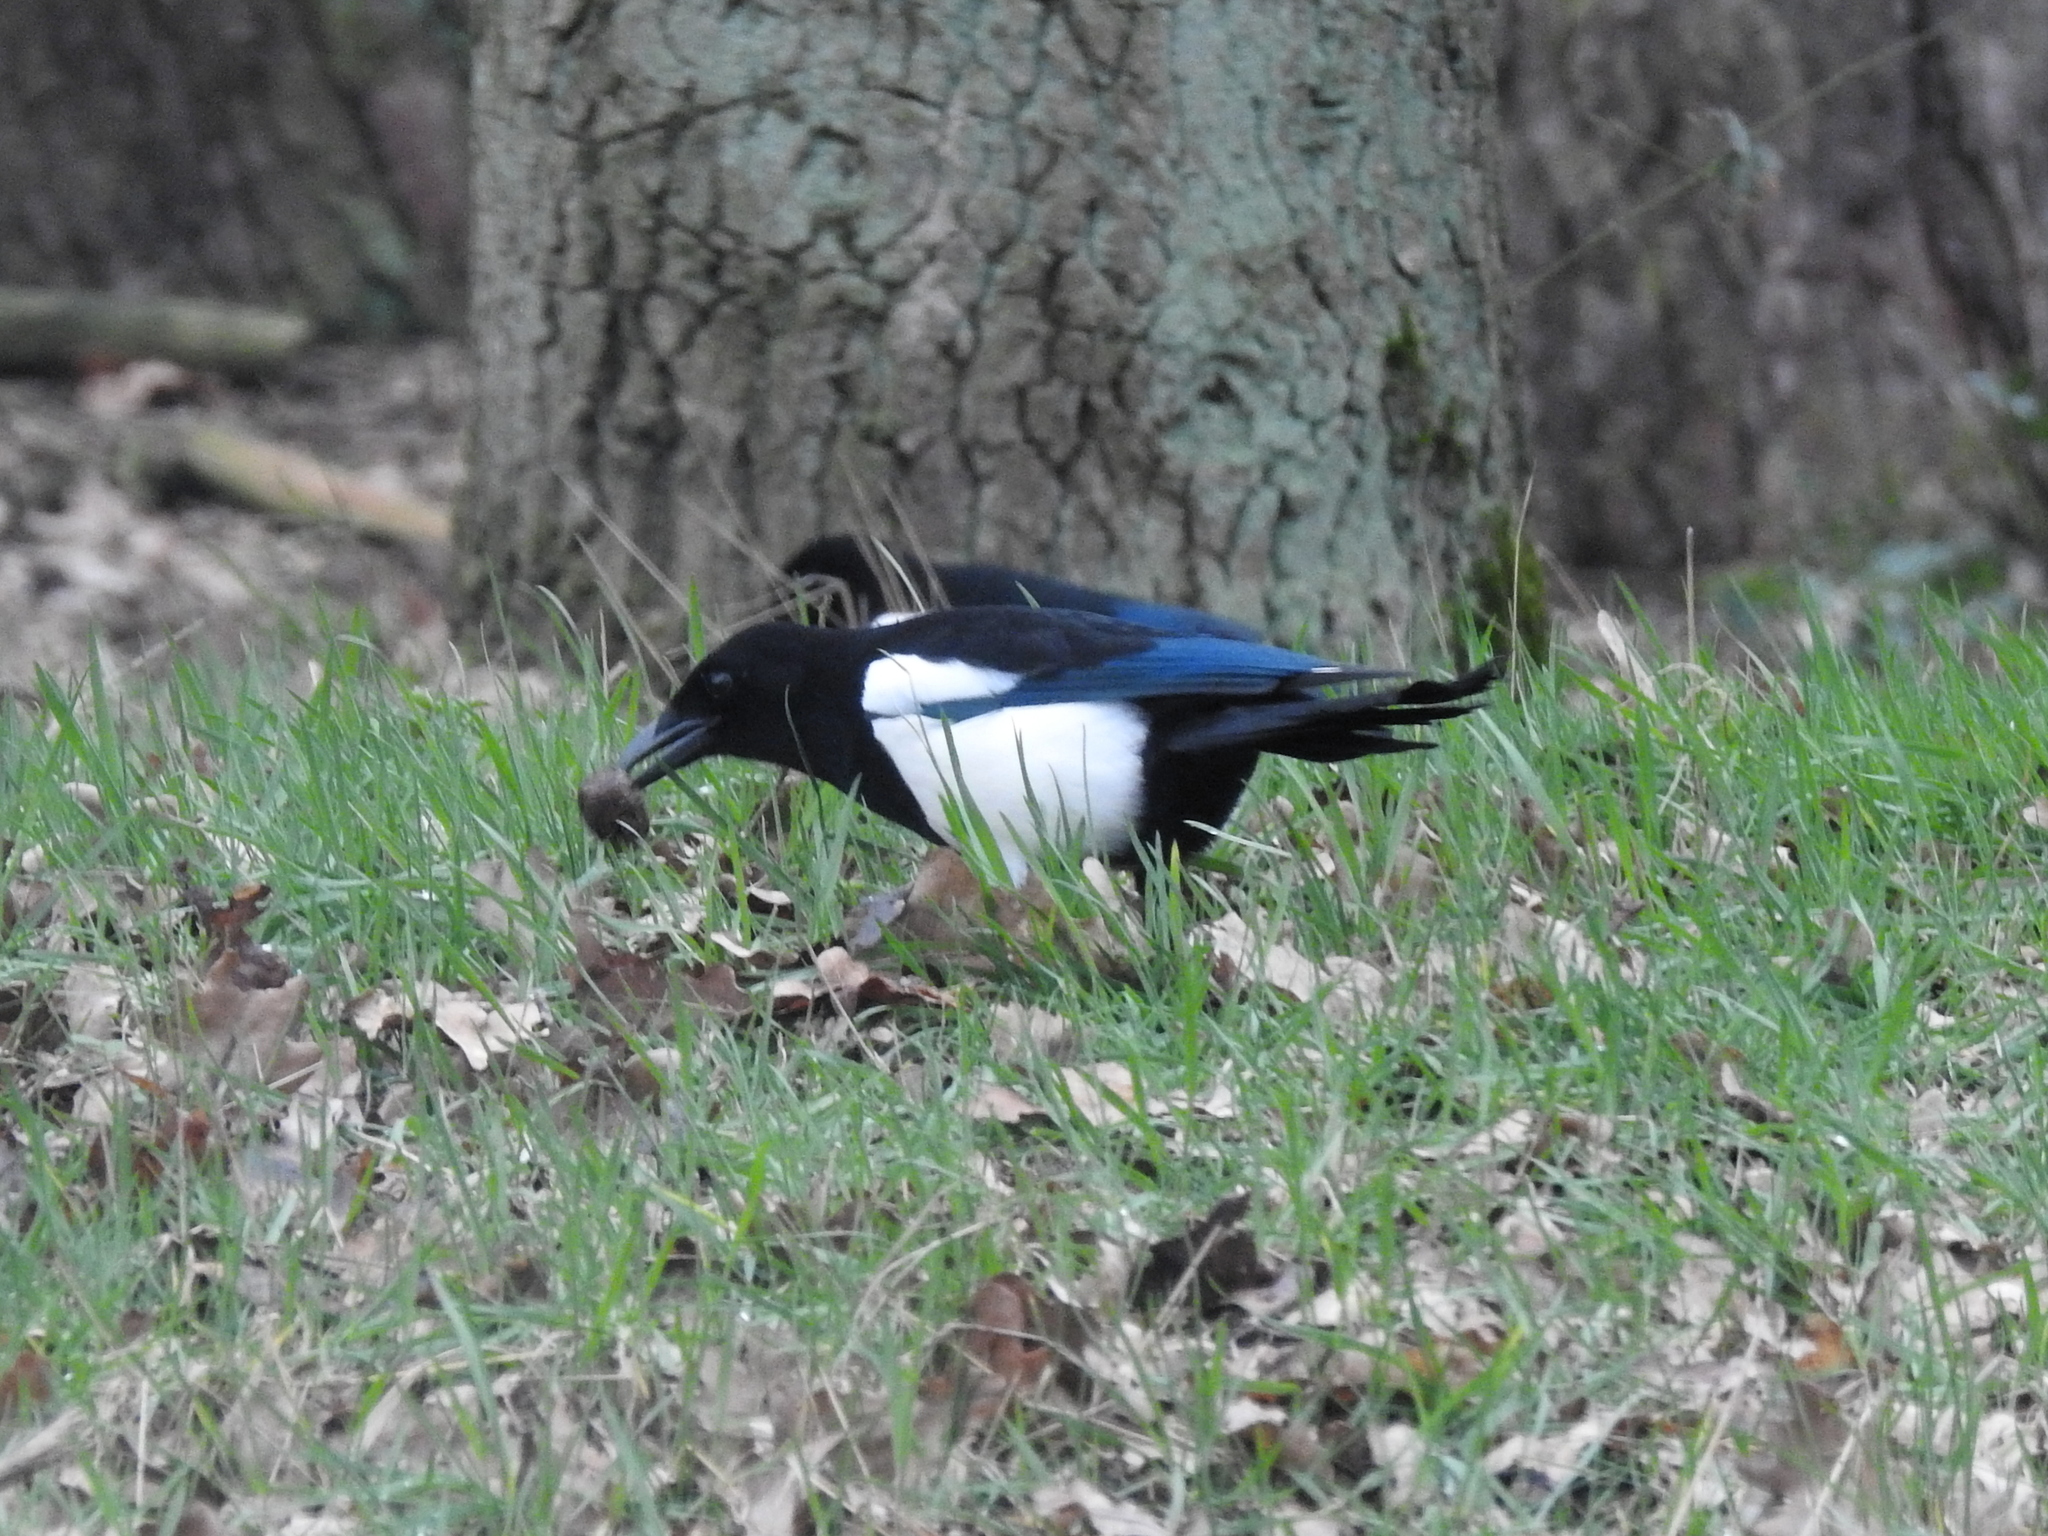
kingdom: Animalia
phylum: Chordata
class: Aves
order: Passeriformes
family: Corvidae
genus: Pica
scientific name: Pica pica
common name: Eurasian magpie
